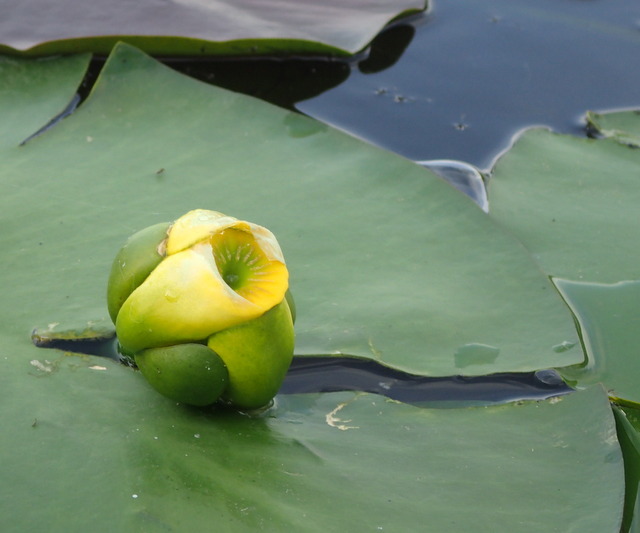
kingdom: Plantae
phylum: Tracheophyta
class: Magnoliopsida
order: Nymphaeales
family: Nymphaeaceae
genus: Nuphar
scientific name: Nuphar advena
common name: Spatter-dock
